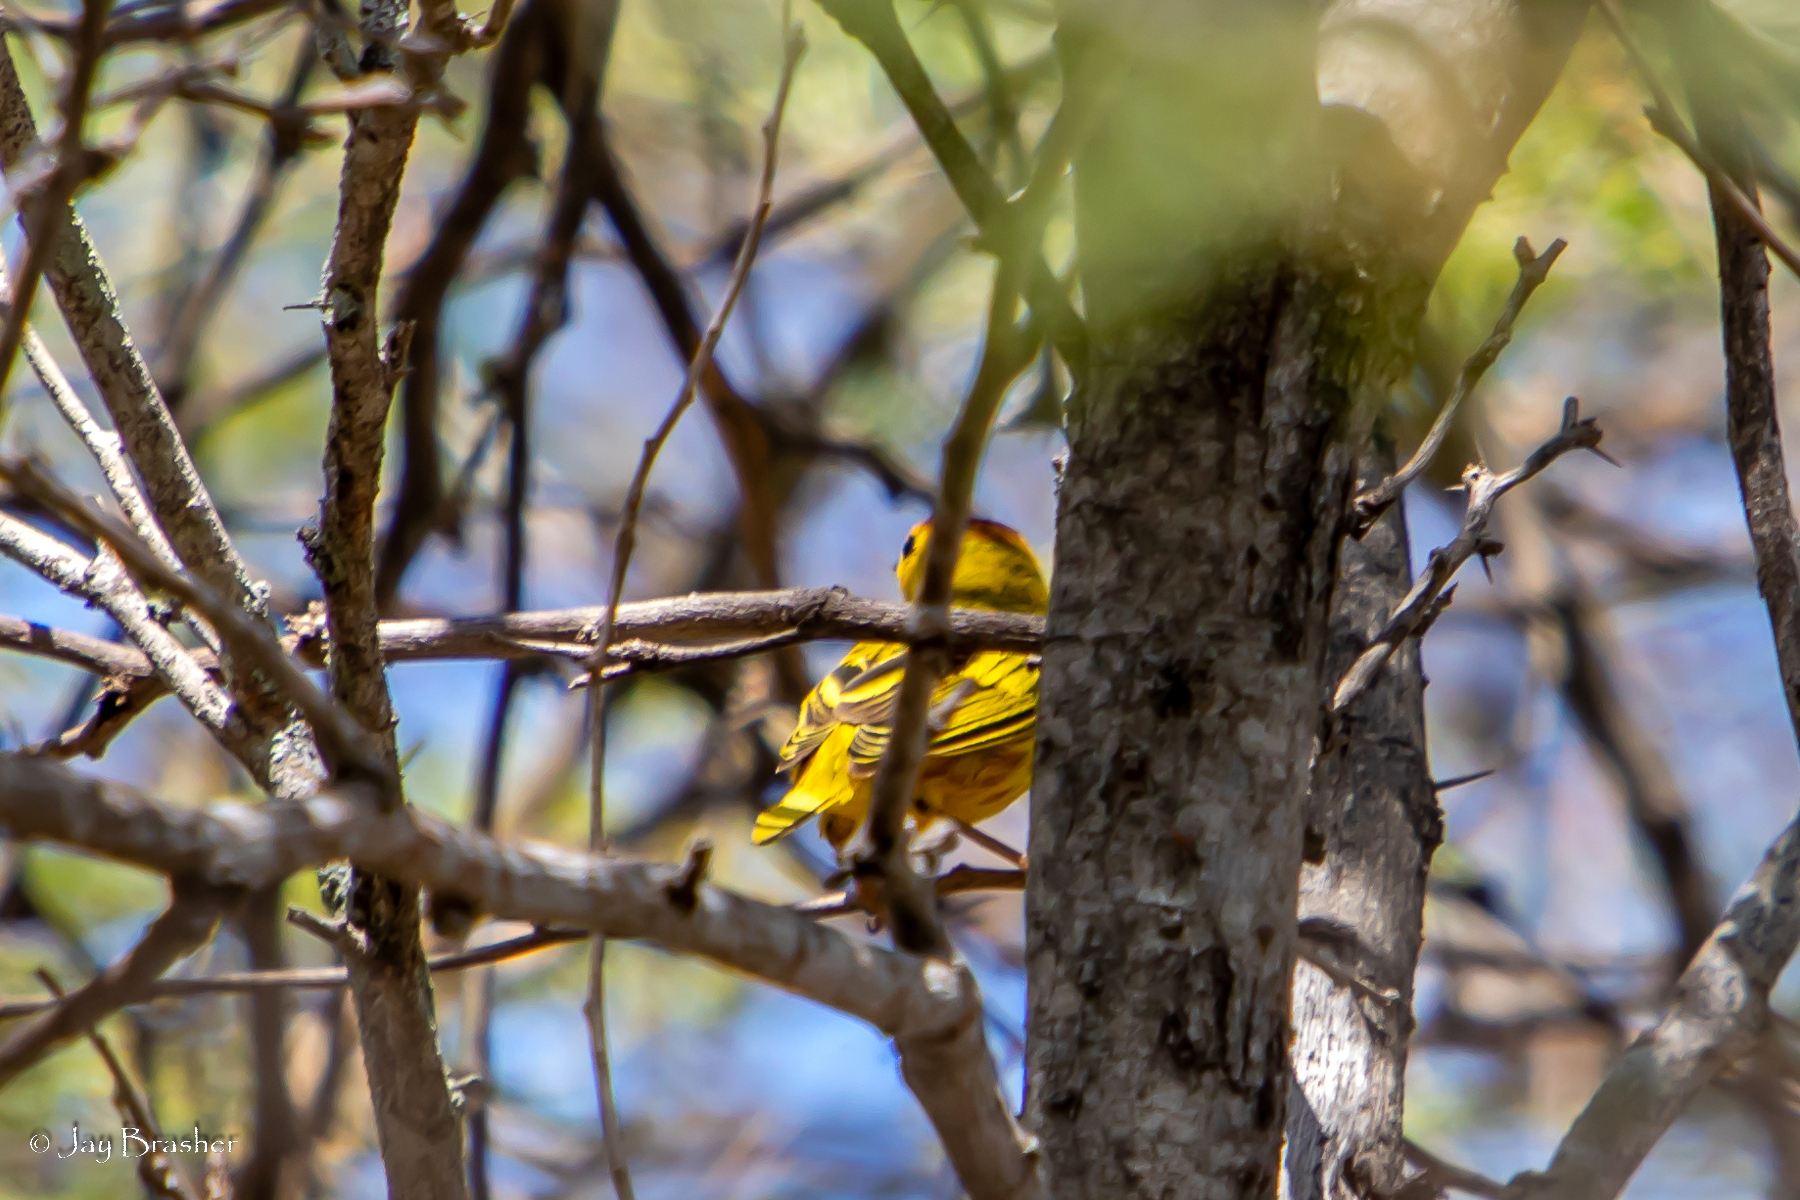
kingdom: Animalia
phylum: Chordata
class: Aves
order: Passeriformes
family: Parulidae
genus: Setophaga
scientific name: Setophaga petechia
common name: Yellow warbler
